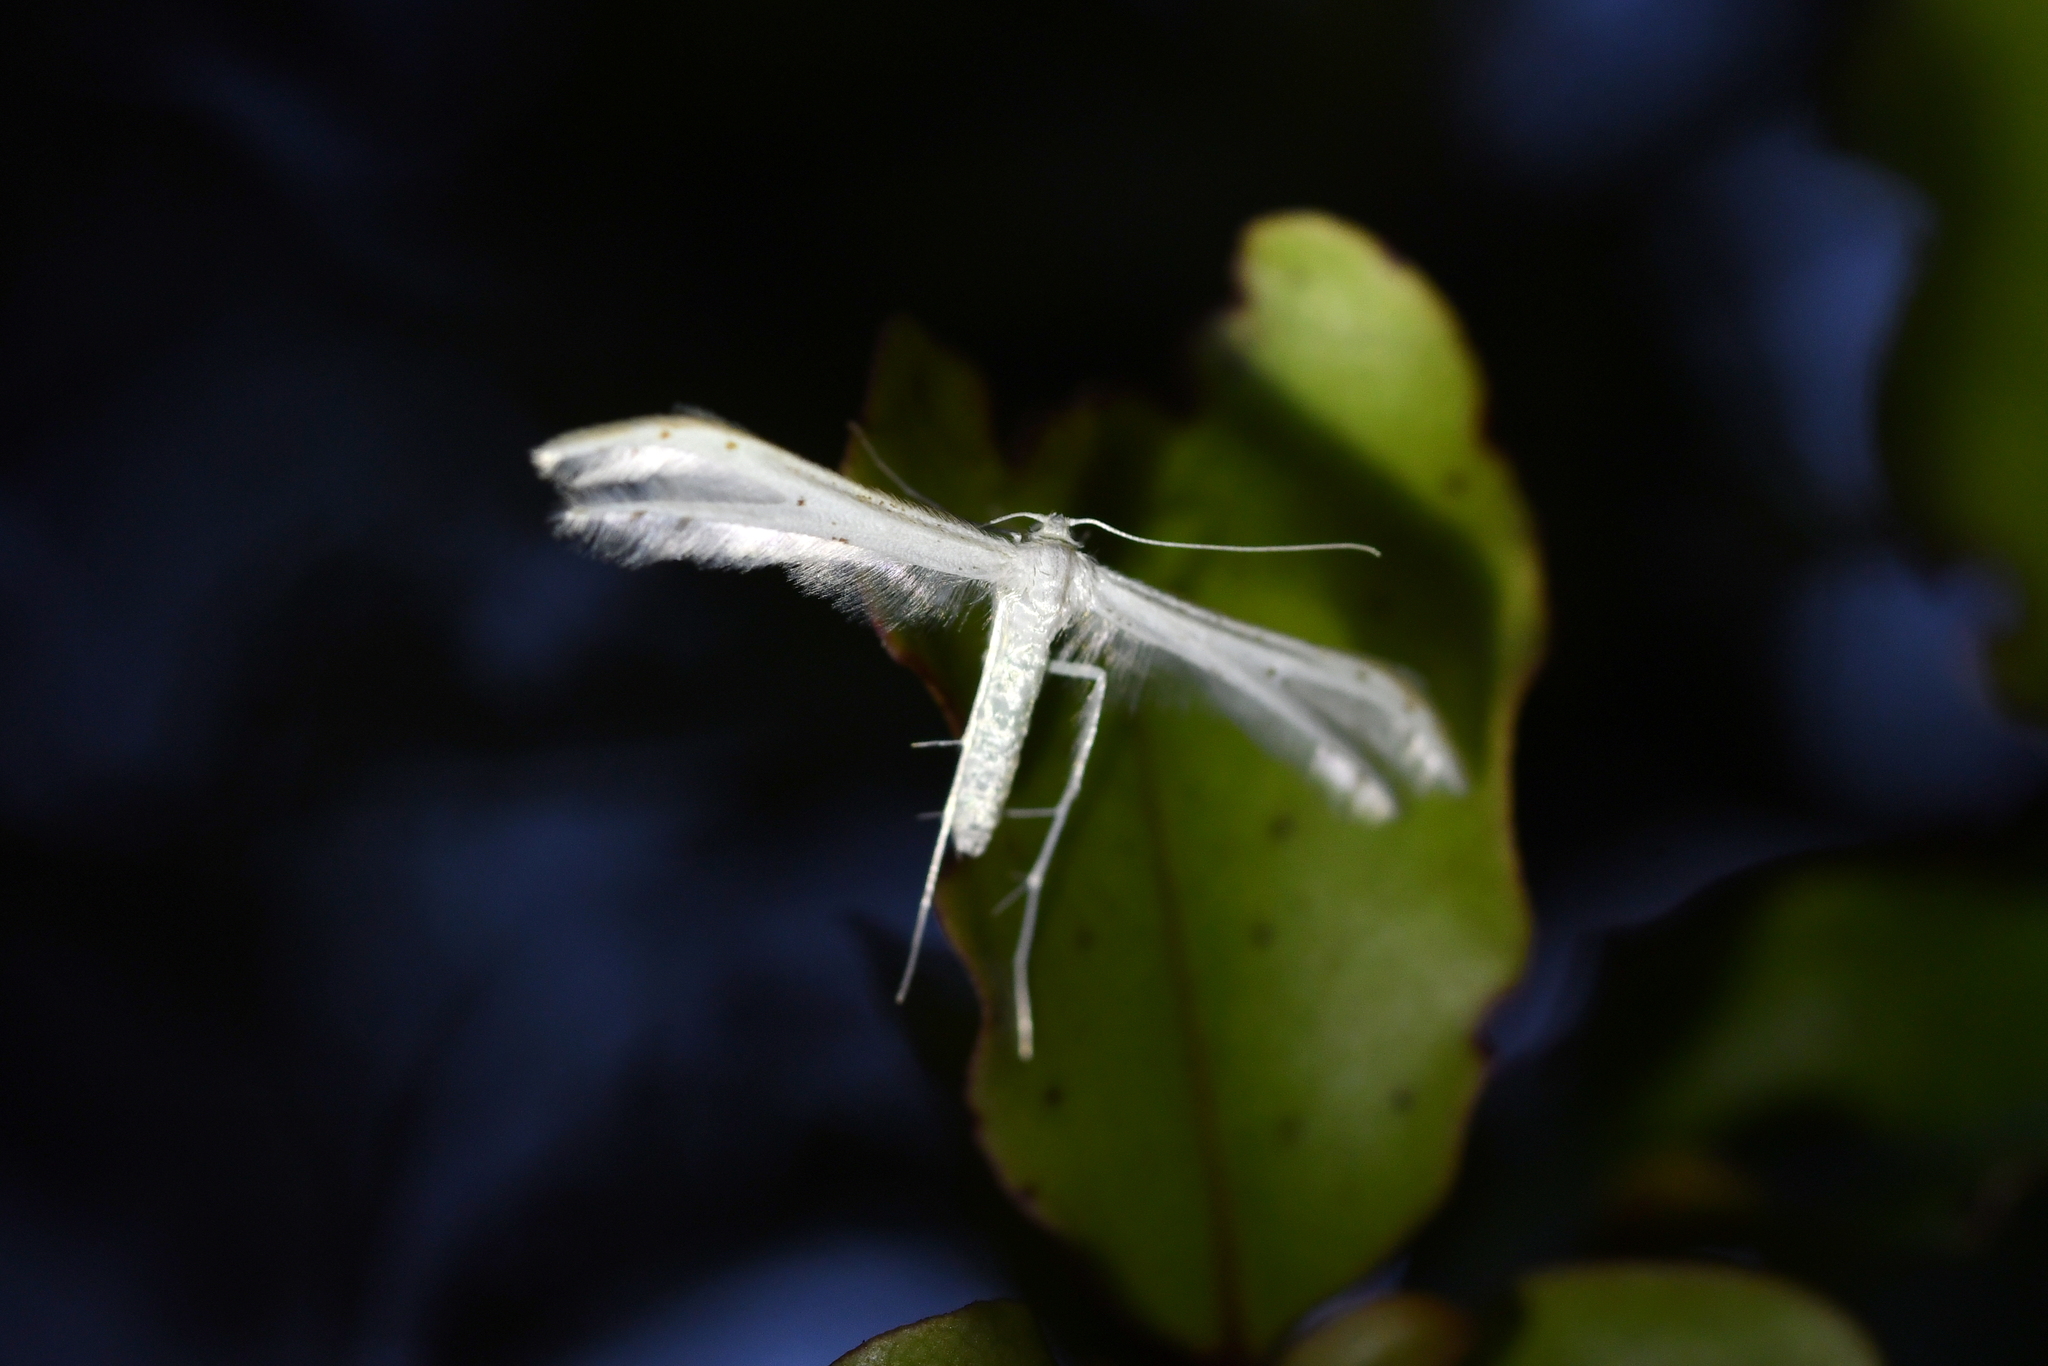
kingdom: Animalia
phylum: Arthropoda
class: Insecta
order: Lepidoptera
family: Pterophoridae
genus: Pterophorus
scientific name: Pterophorus monospilalis
